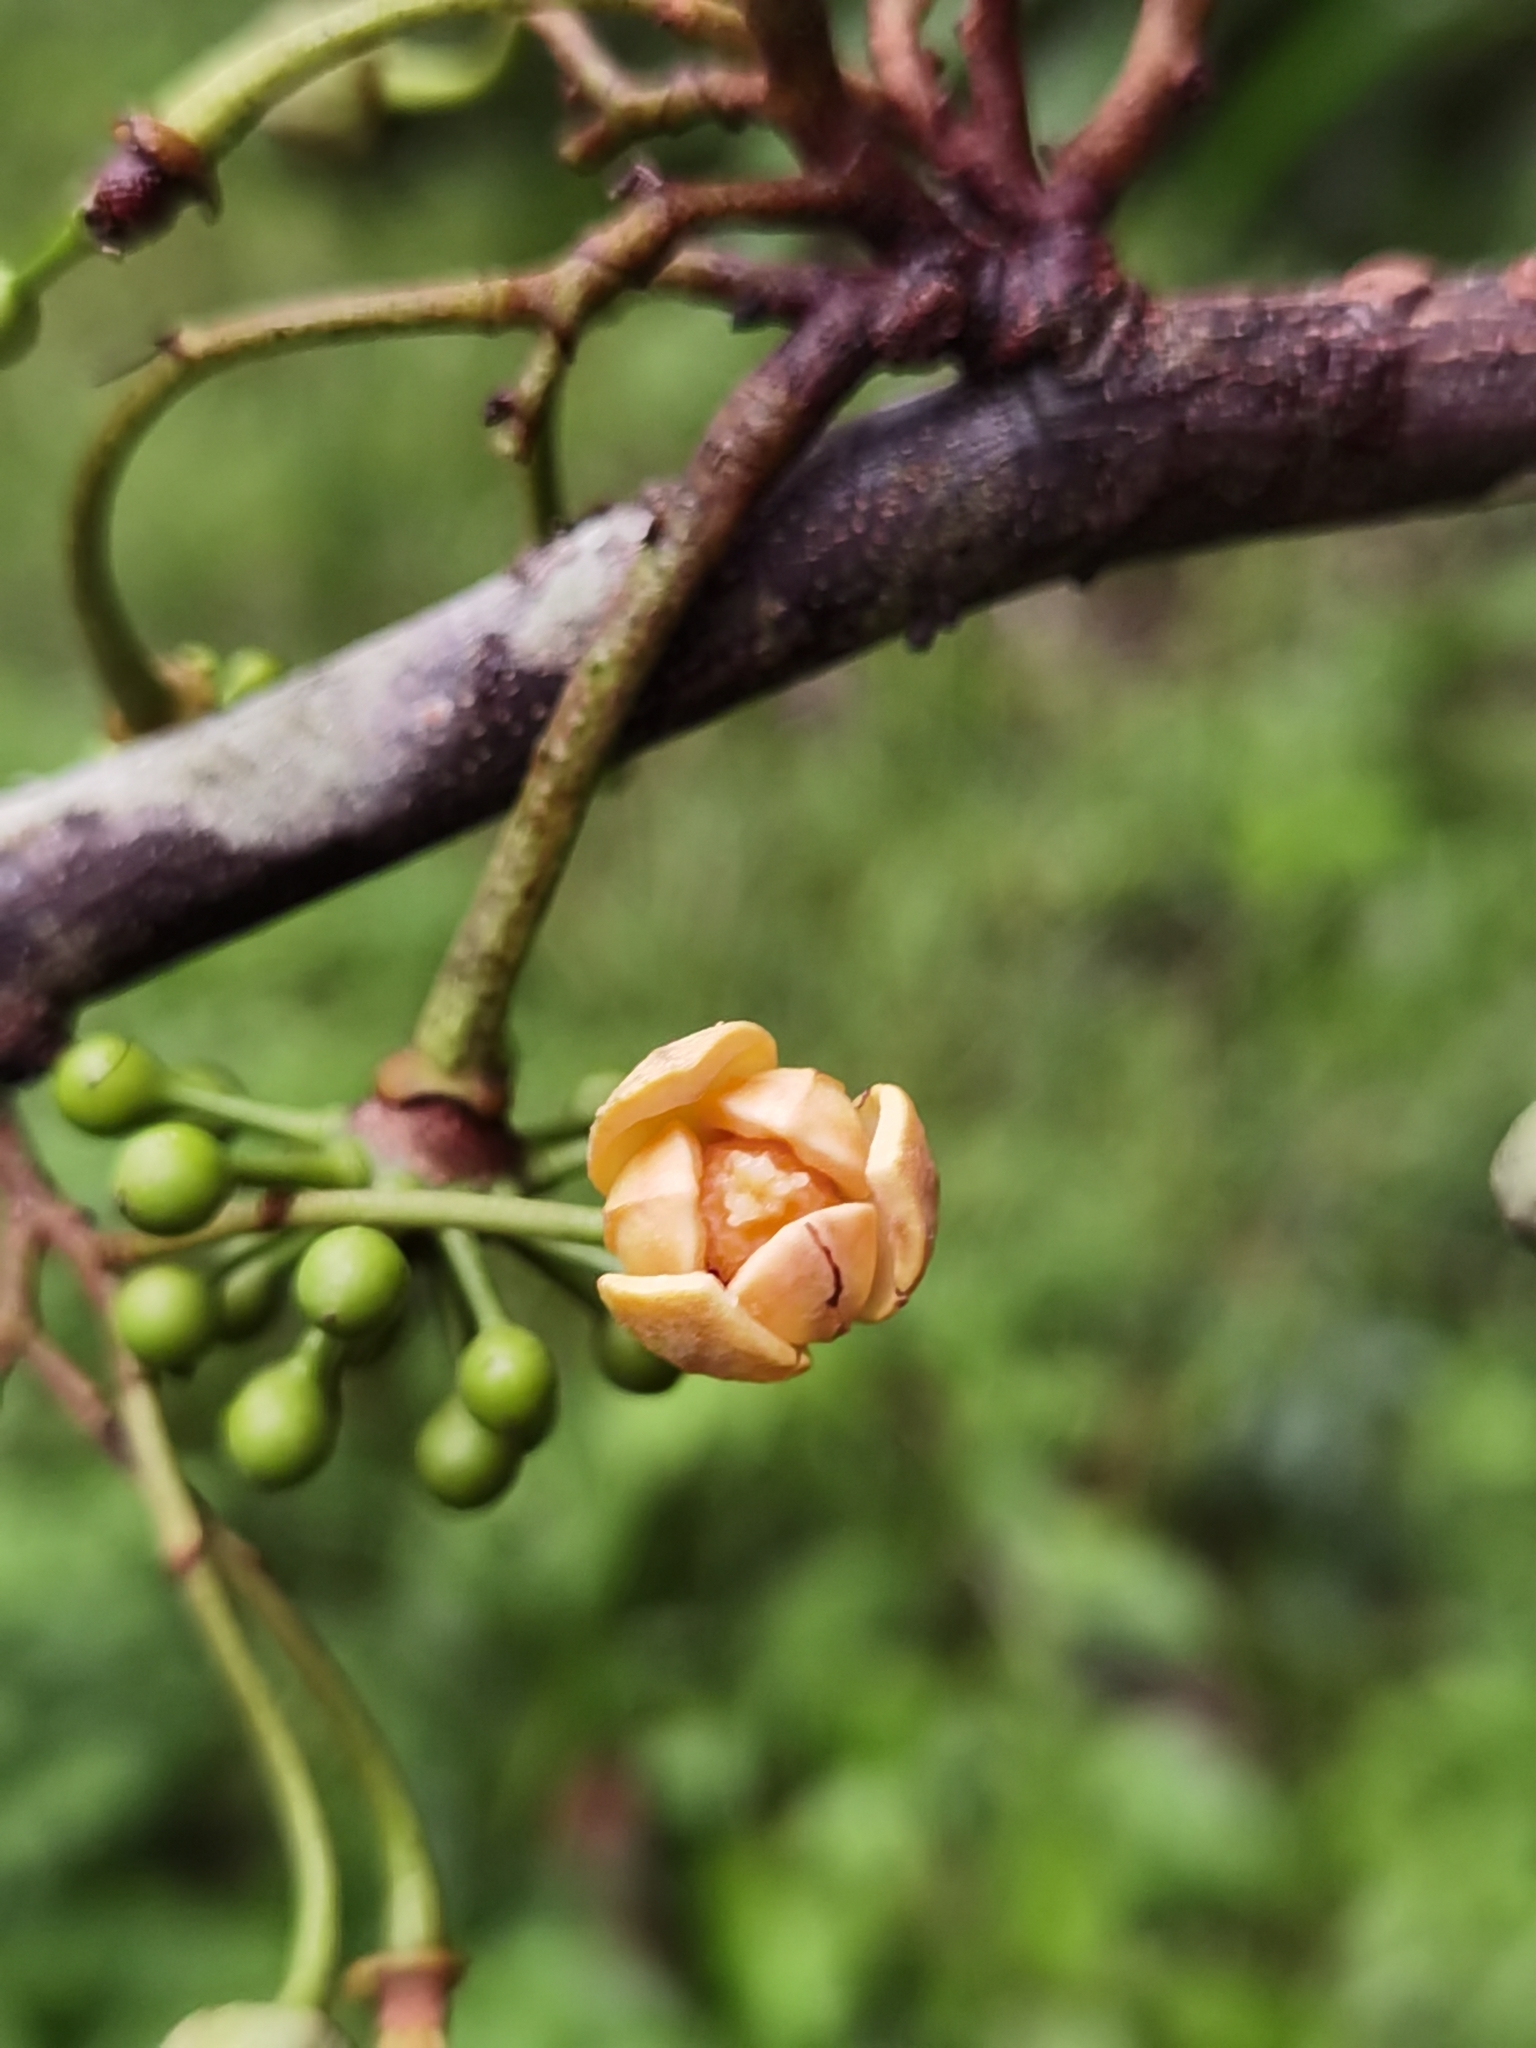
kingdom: Plantae
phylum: Tracheophyta
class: Magnoliopsida
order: Magnoliales
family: Annonaceae
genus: Unonopsis
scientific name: Unonopsis pittieri
